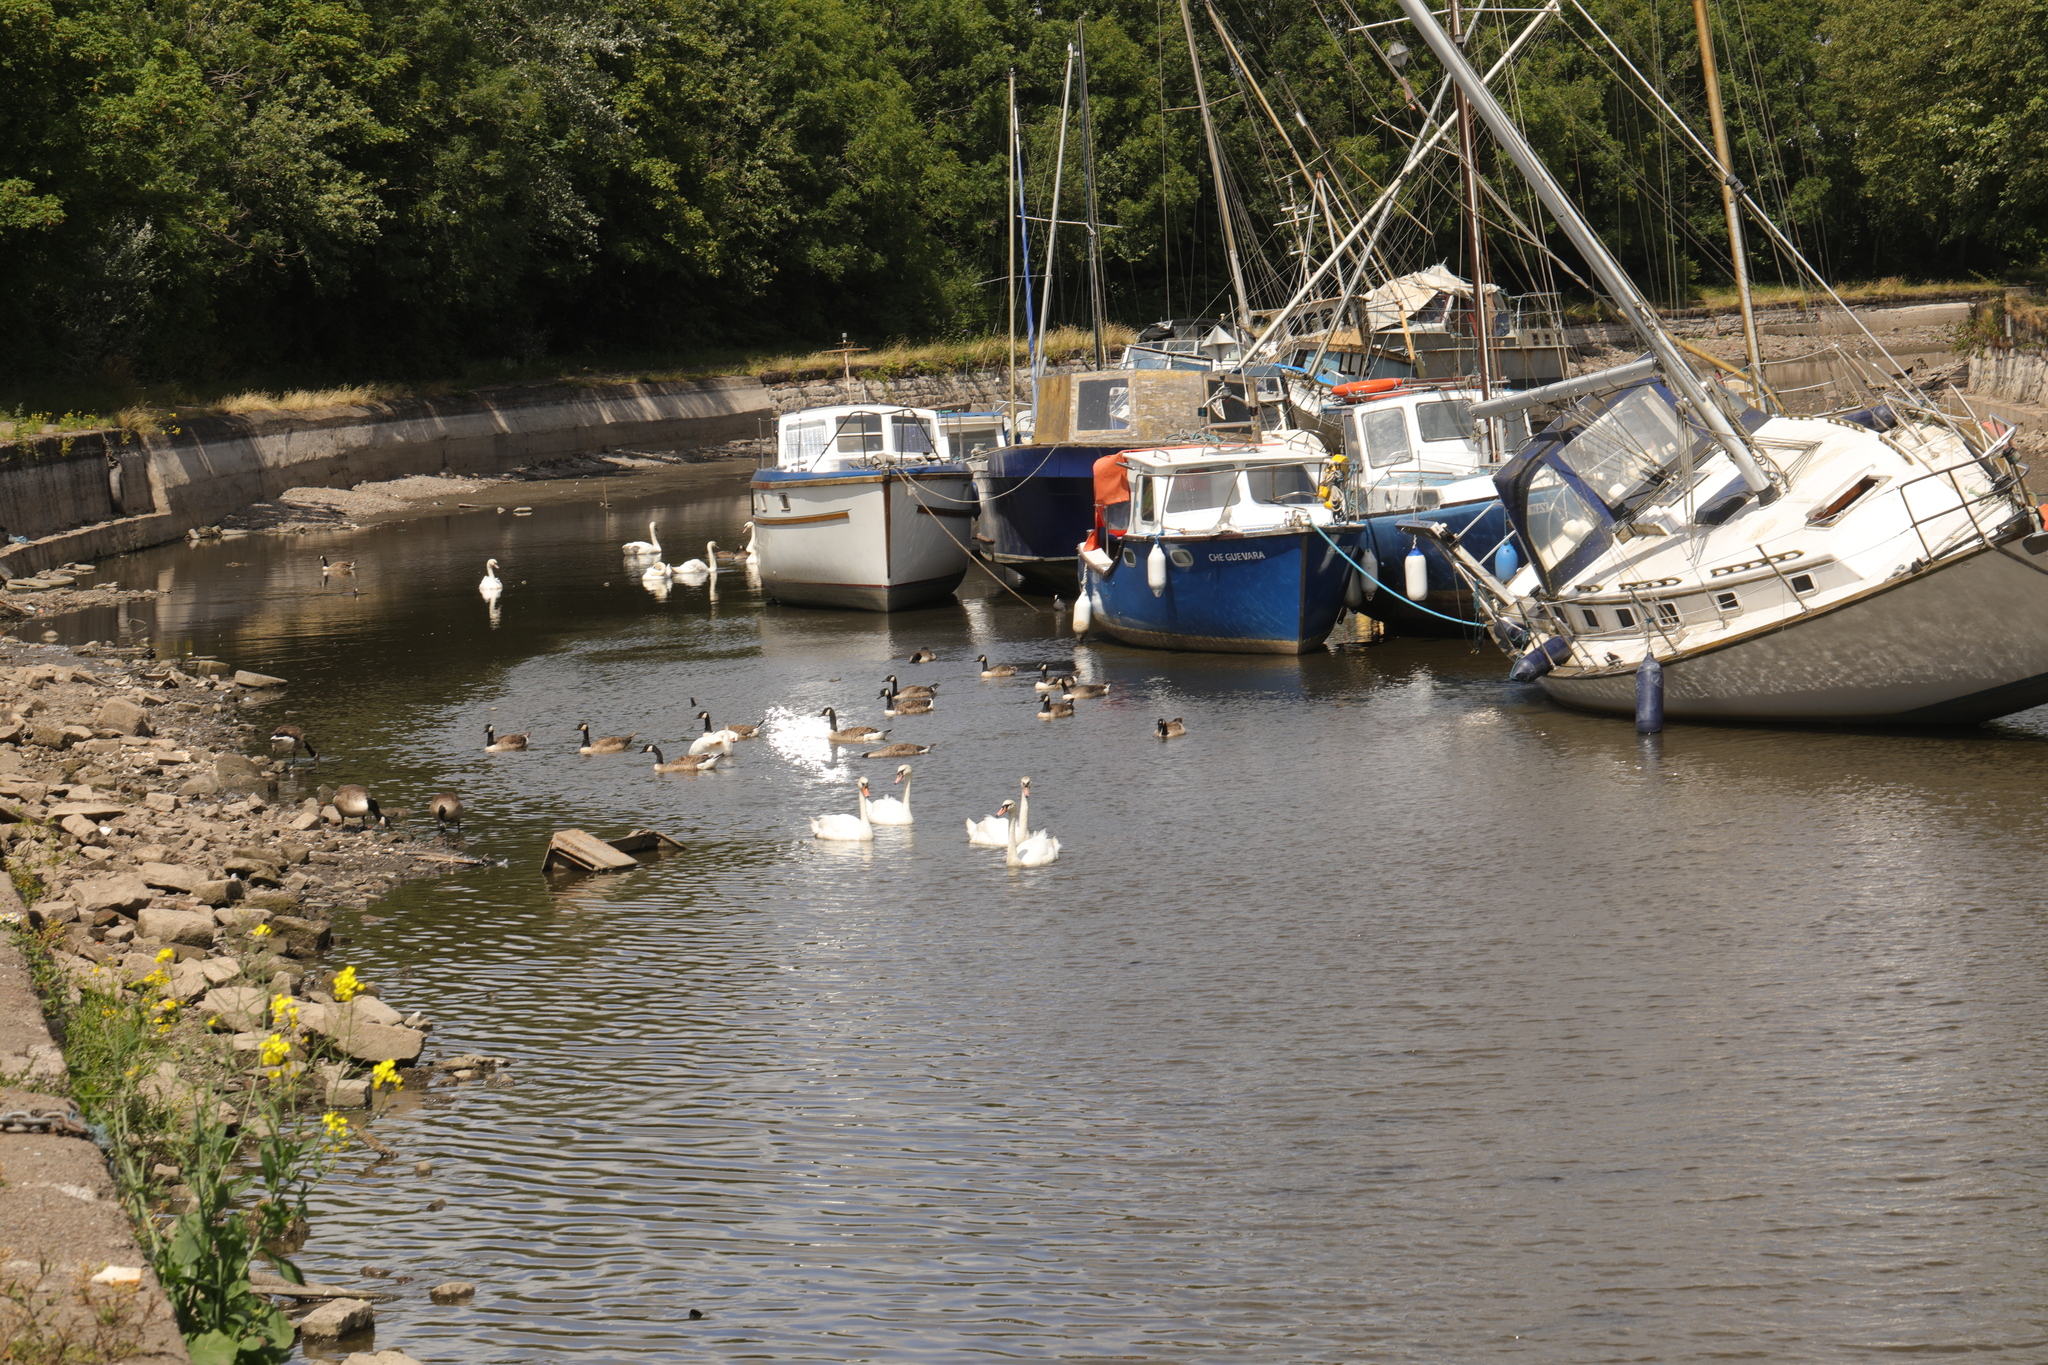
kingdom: Animalia
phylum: Chordata
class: Aves
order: Anseriformes
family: Anatidae
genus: Cygnus
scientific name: Cygnus olor
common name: Mute swan
